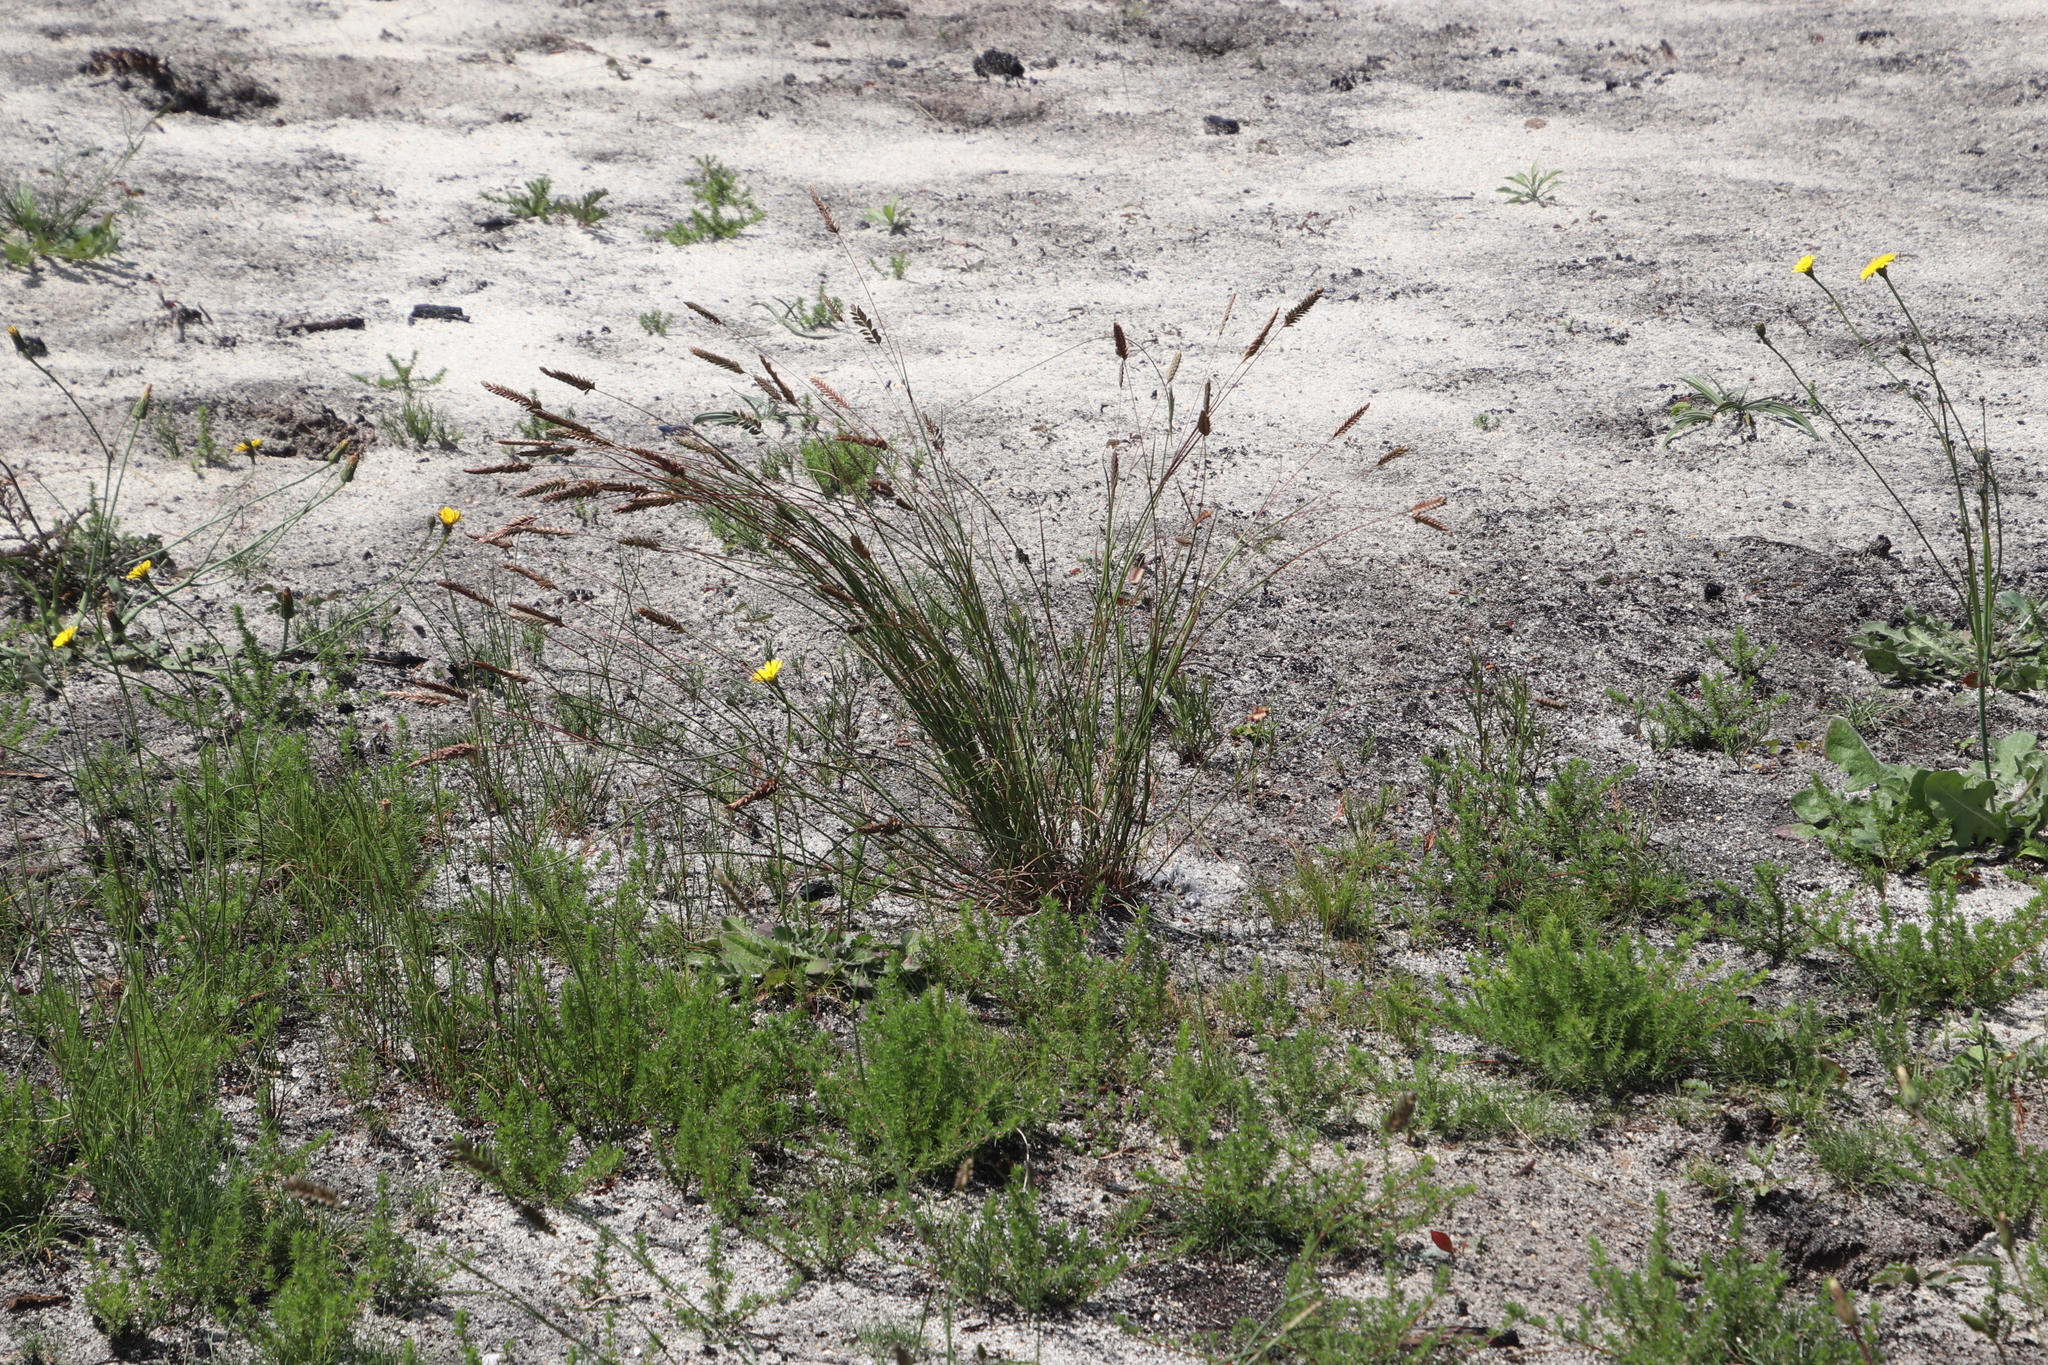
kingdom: Plantae
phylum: Tracheophyta
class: Liliopsida
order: Poales
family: Poaceae
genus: Tribolium
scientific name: Tribolium uniolae
